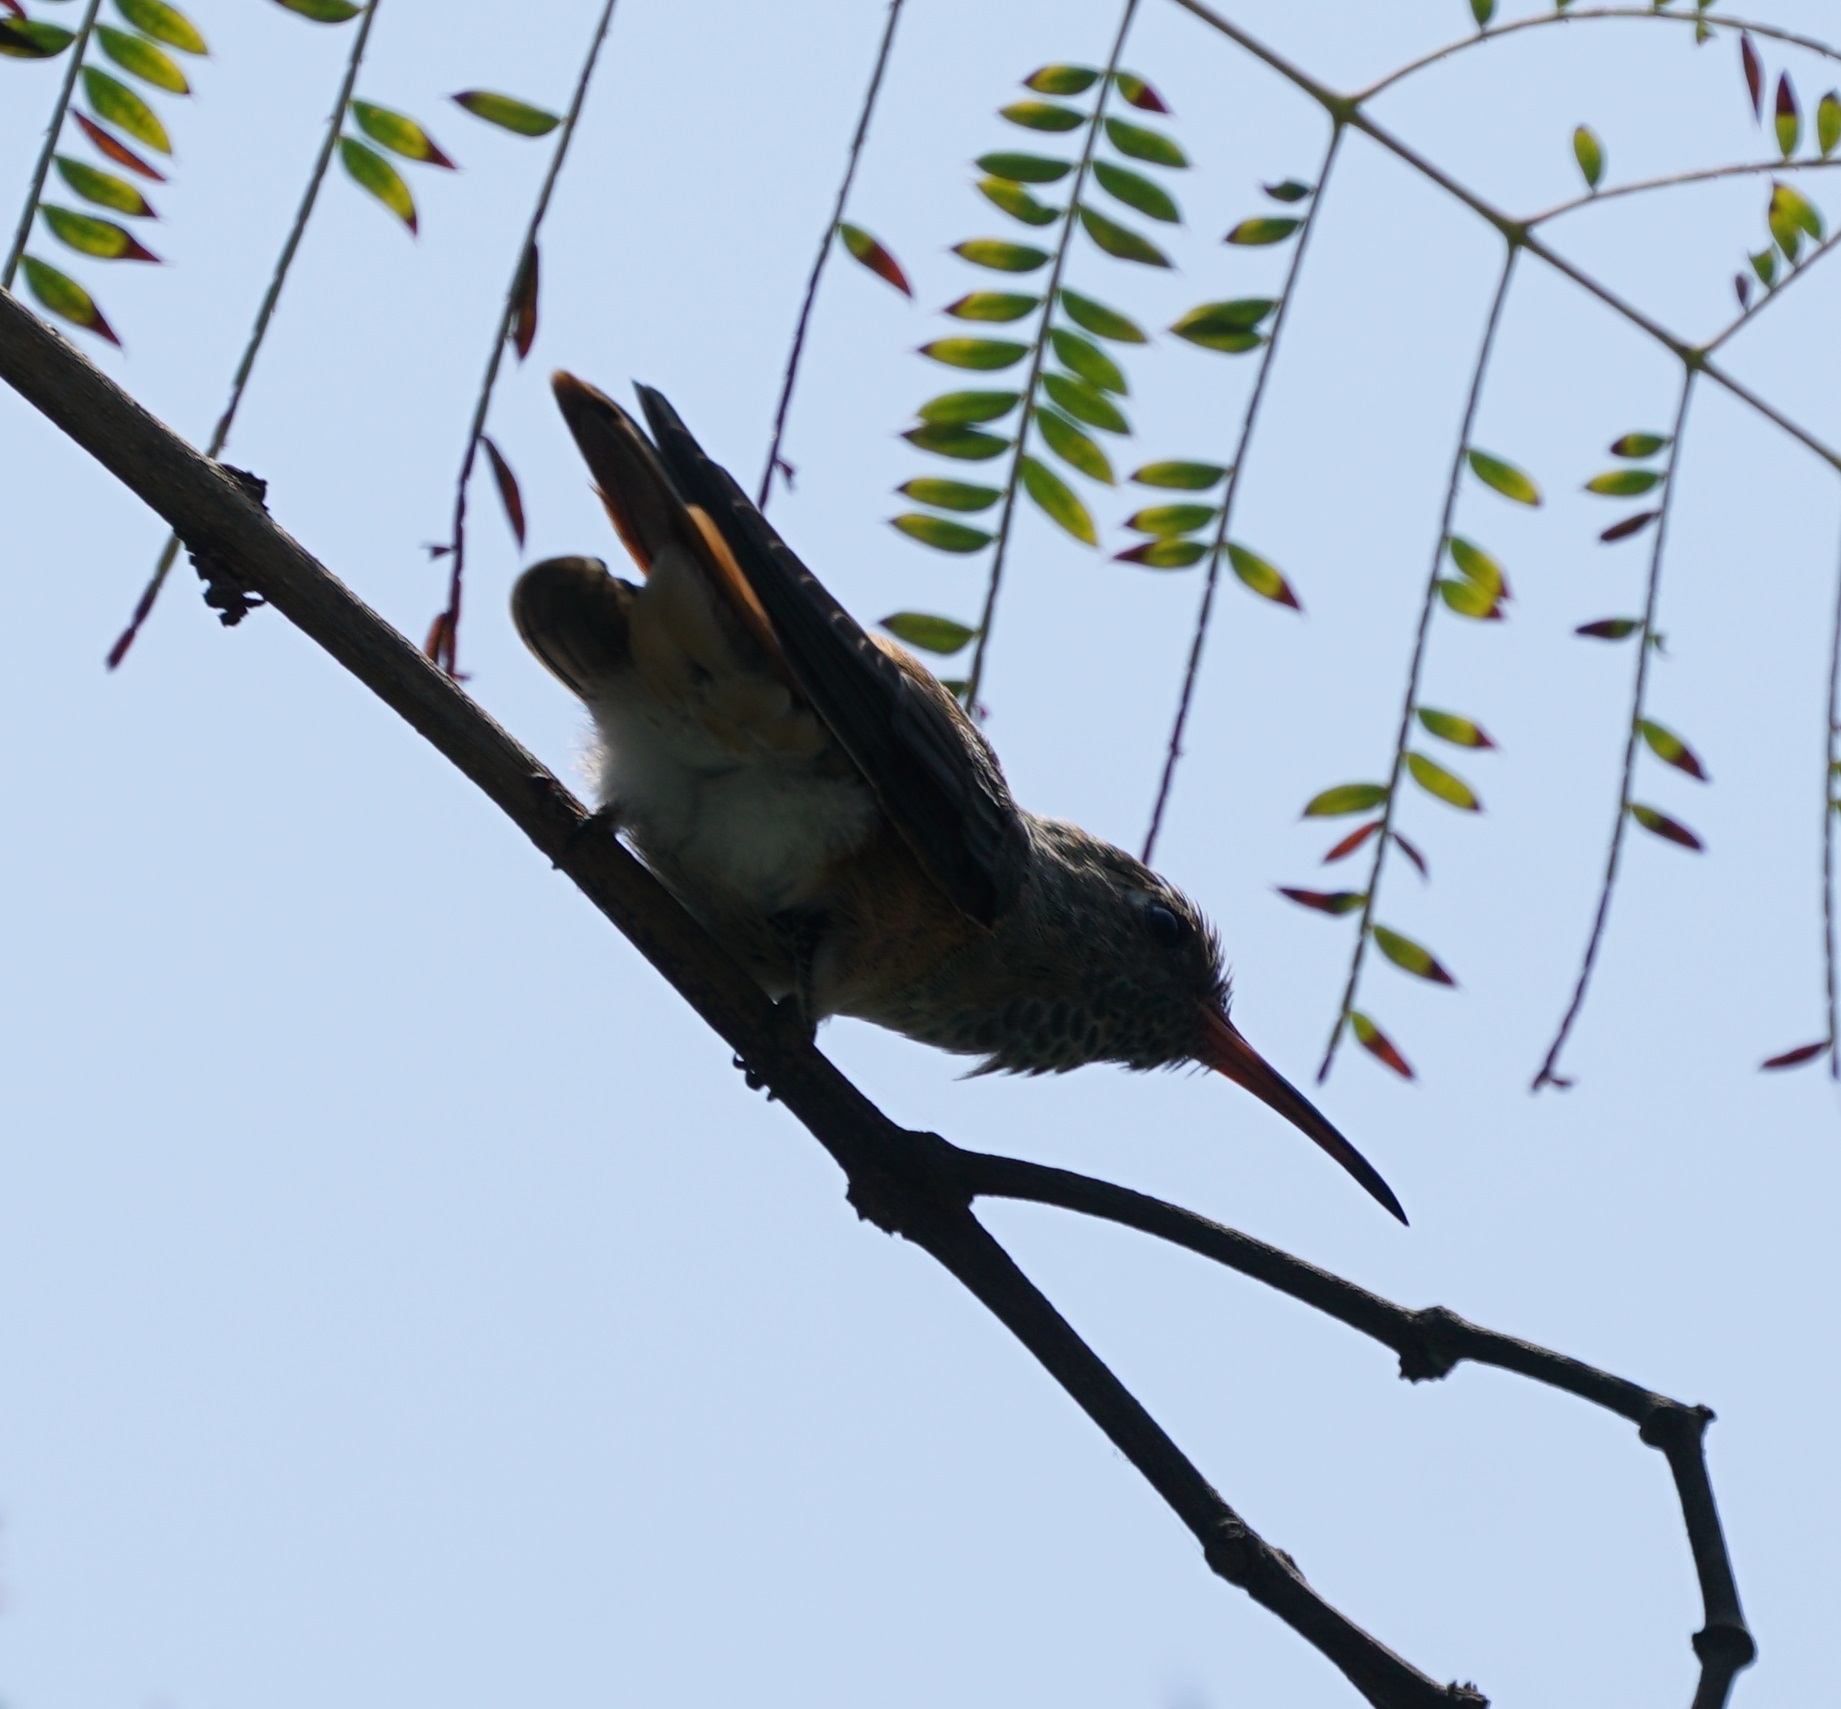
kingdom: Animalia
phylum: Chordata
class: Aves
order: Apodiformes
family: Trochilidae
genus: Amazilis
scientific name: Amazilis amazilia
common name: Amazilia hummingbird
